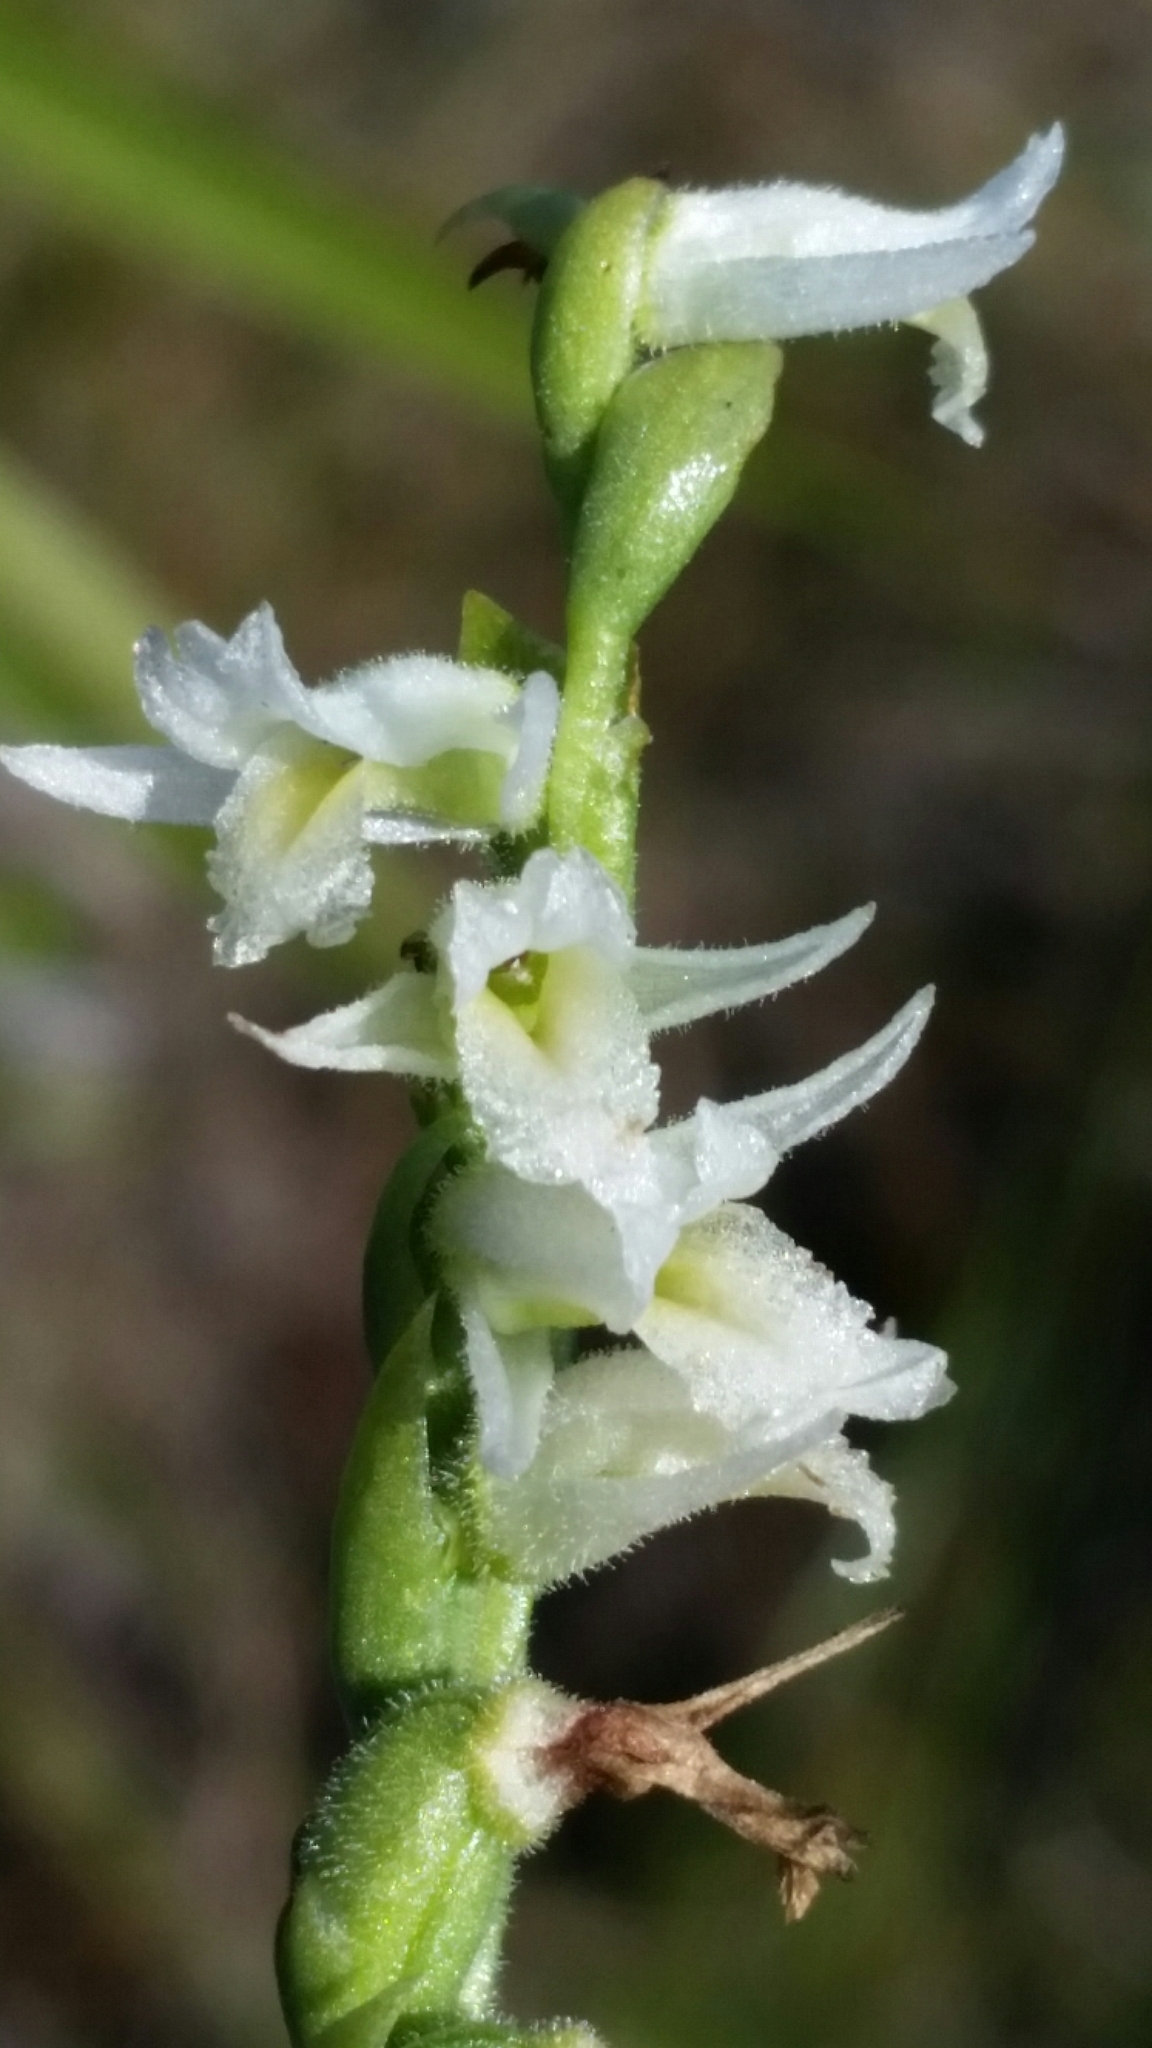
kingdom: Plantae
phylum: Tracheophyta
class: Liliopsida
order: Asparagales
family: Orchidaceae
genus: Spiranthes
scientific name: Spiranthes longilabris
